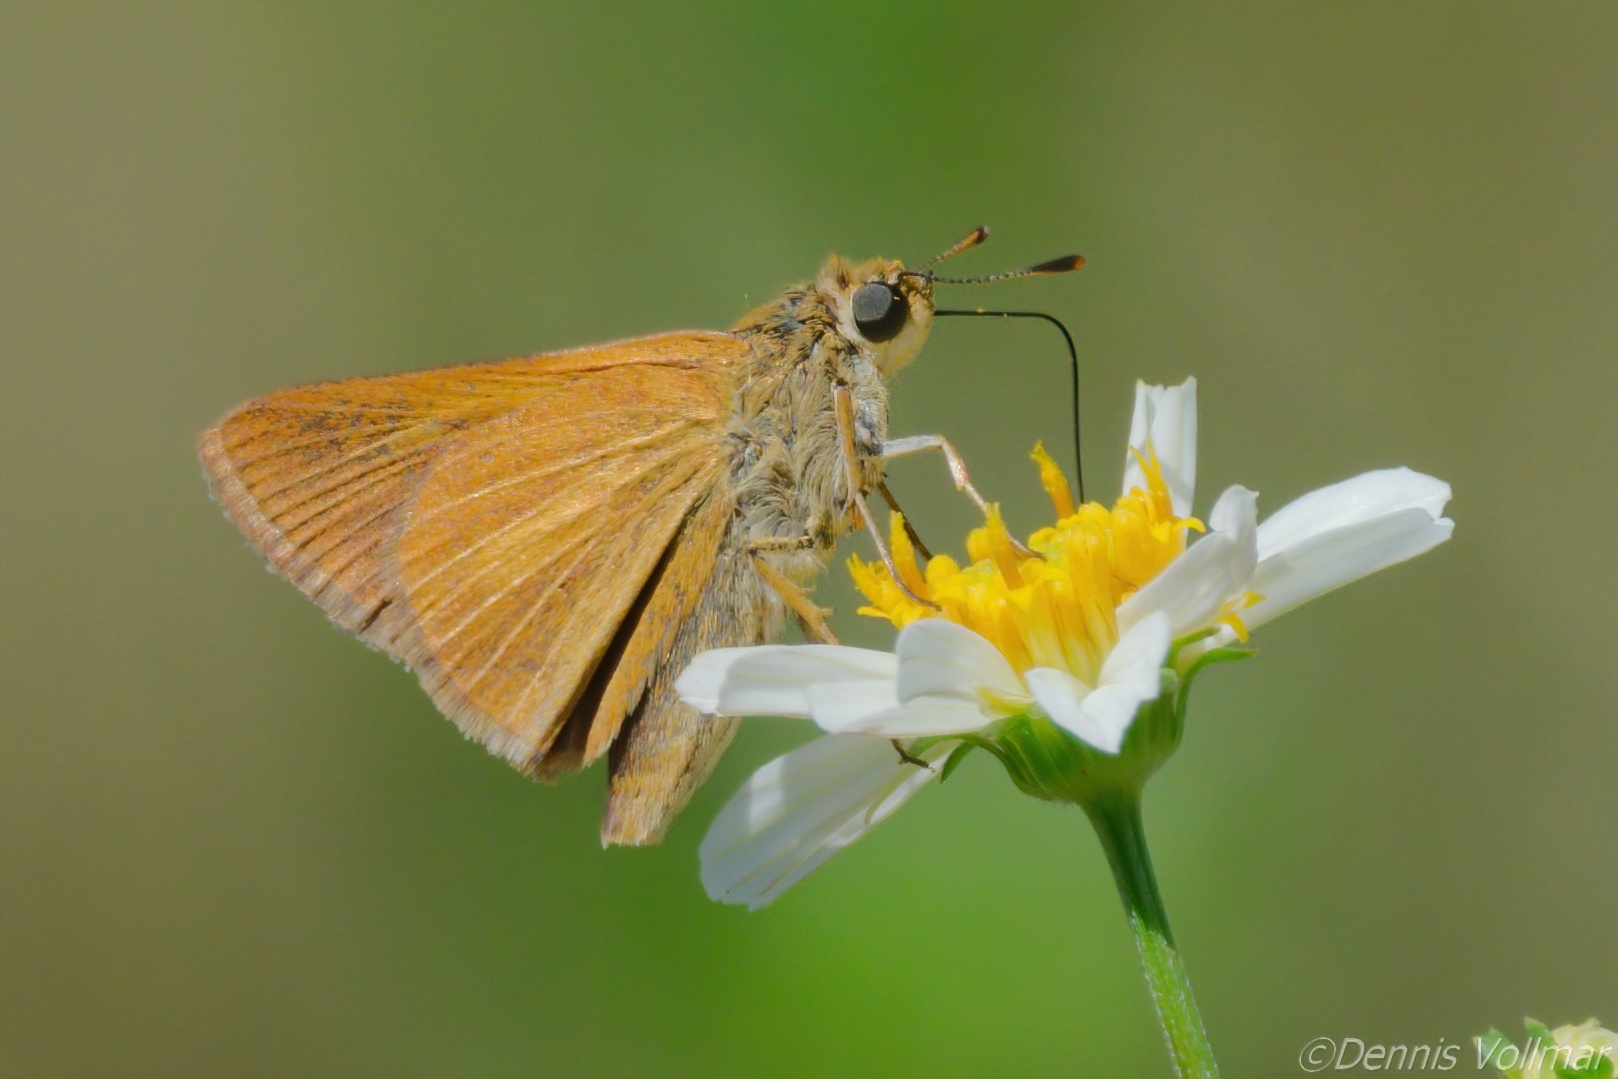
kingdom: Animalia
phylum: Arthropoda
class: Insecta
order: Lepidoptera
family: Hesperiidae
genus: Euphyes
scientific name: Euphyes dion
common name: Dion skipper
